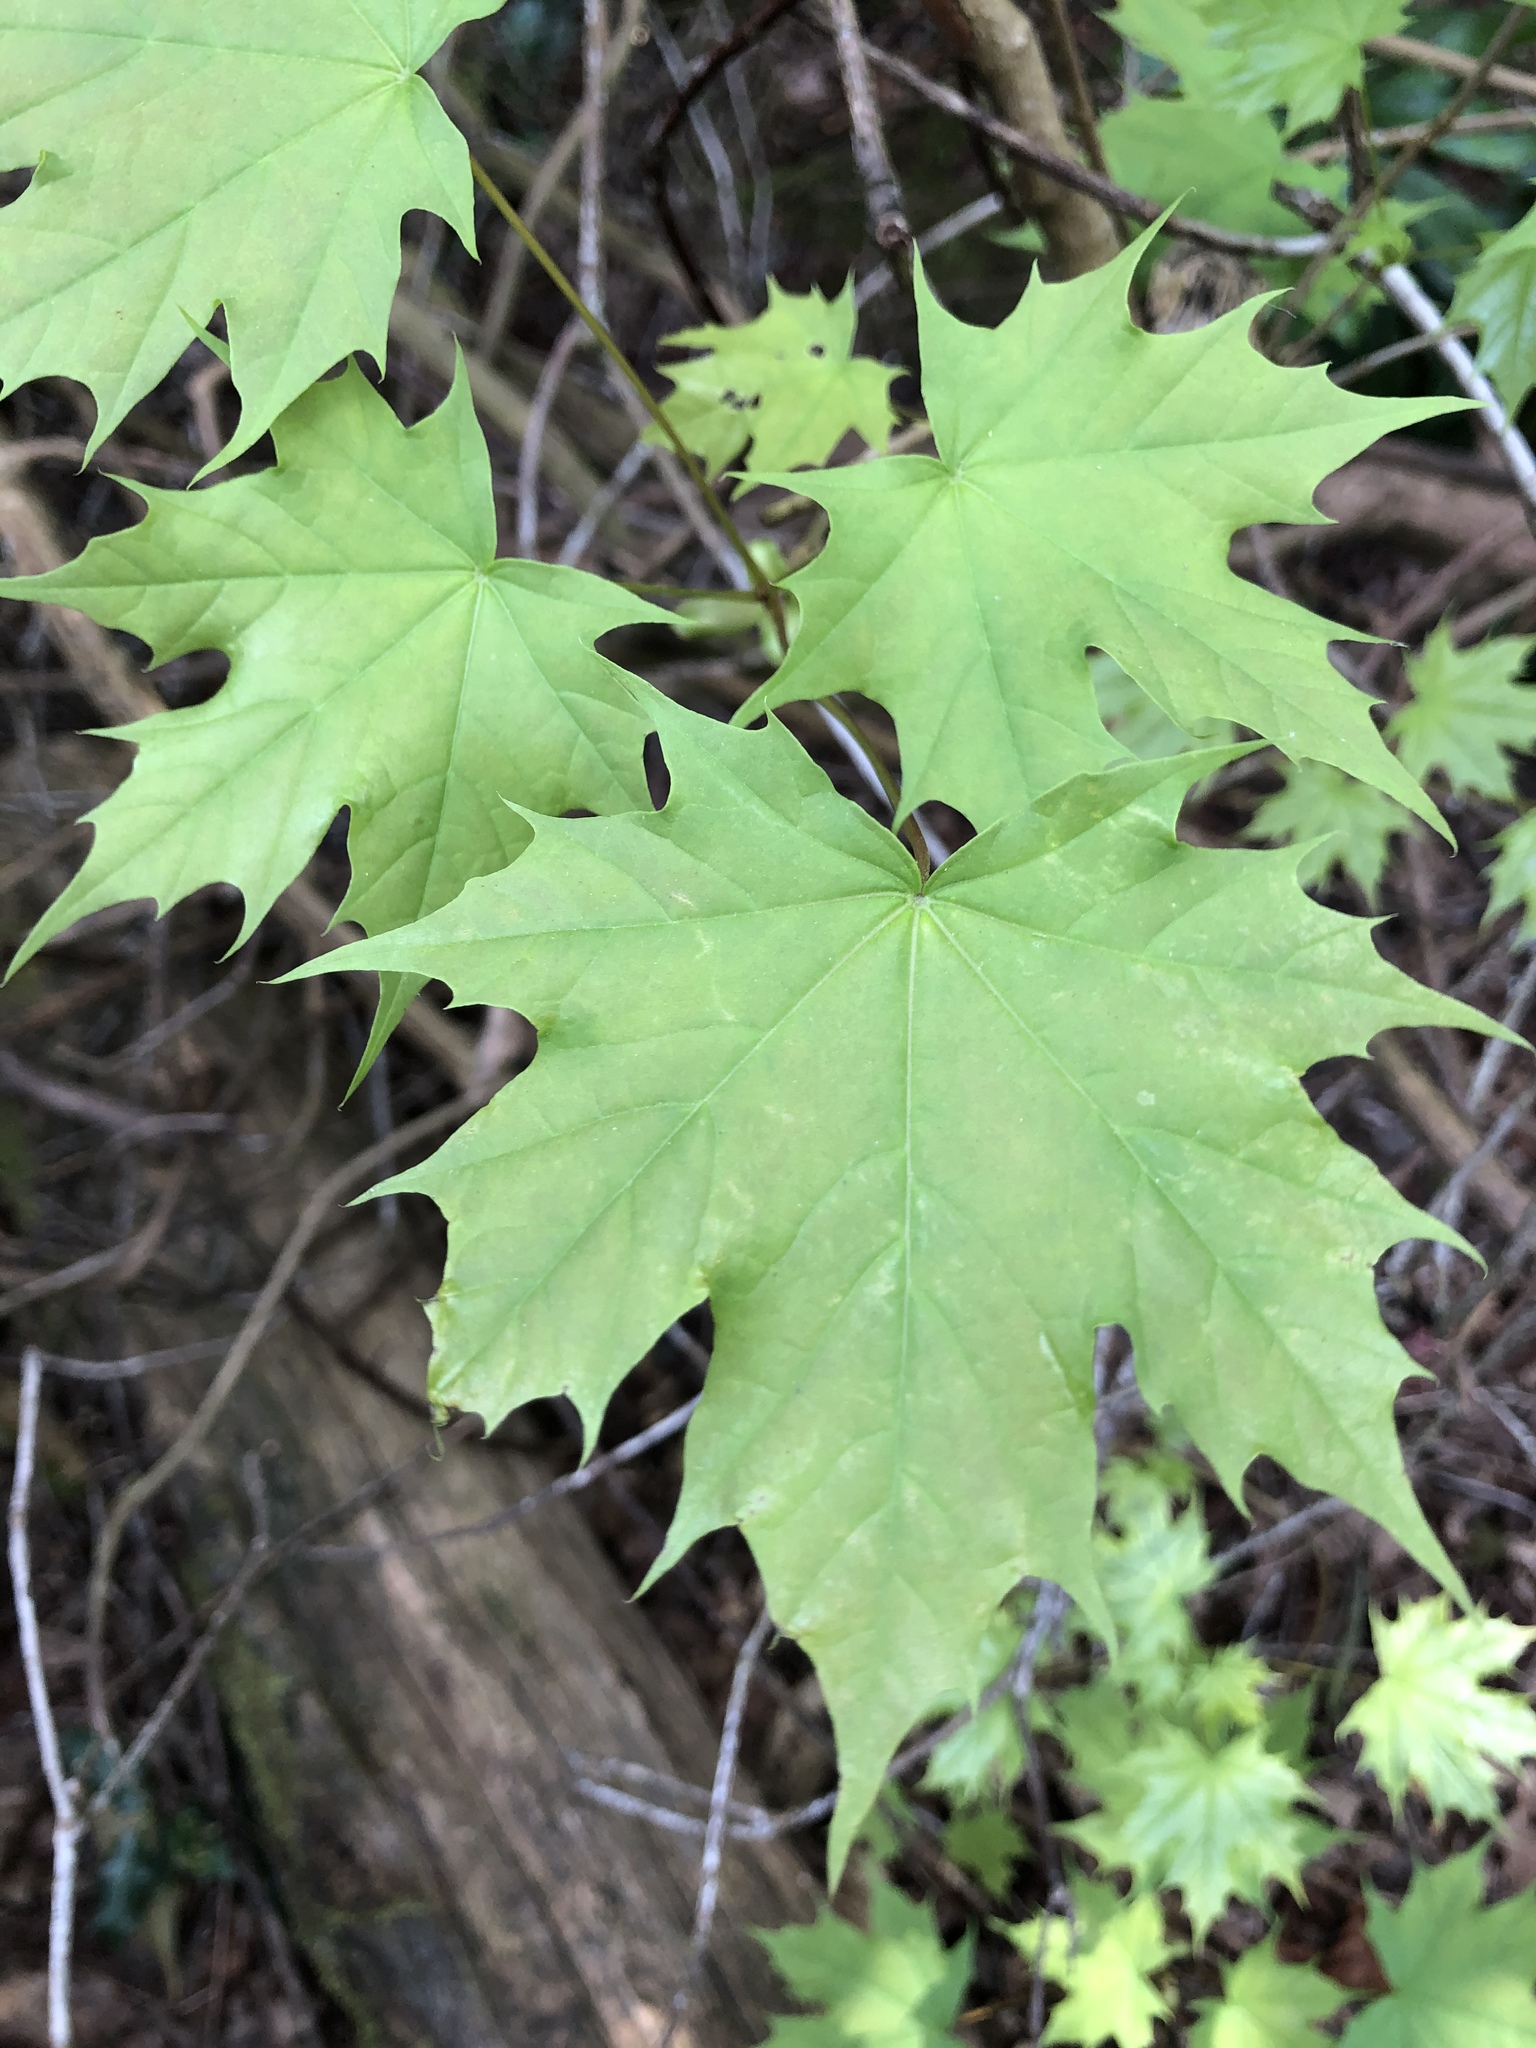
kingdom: Plantae
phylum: Tracheophyta
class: Magnoliopsida
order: Sapindales
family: Sapindaceae
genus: Acer
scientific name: Acer platanoides
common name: Norway maple
